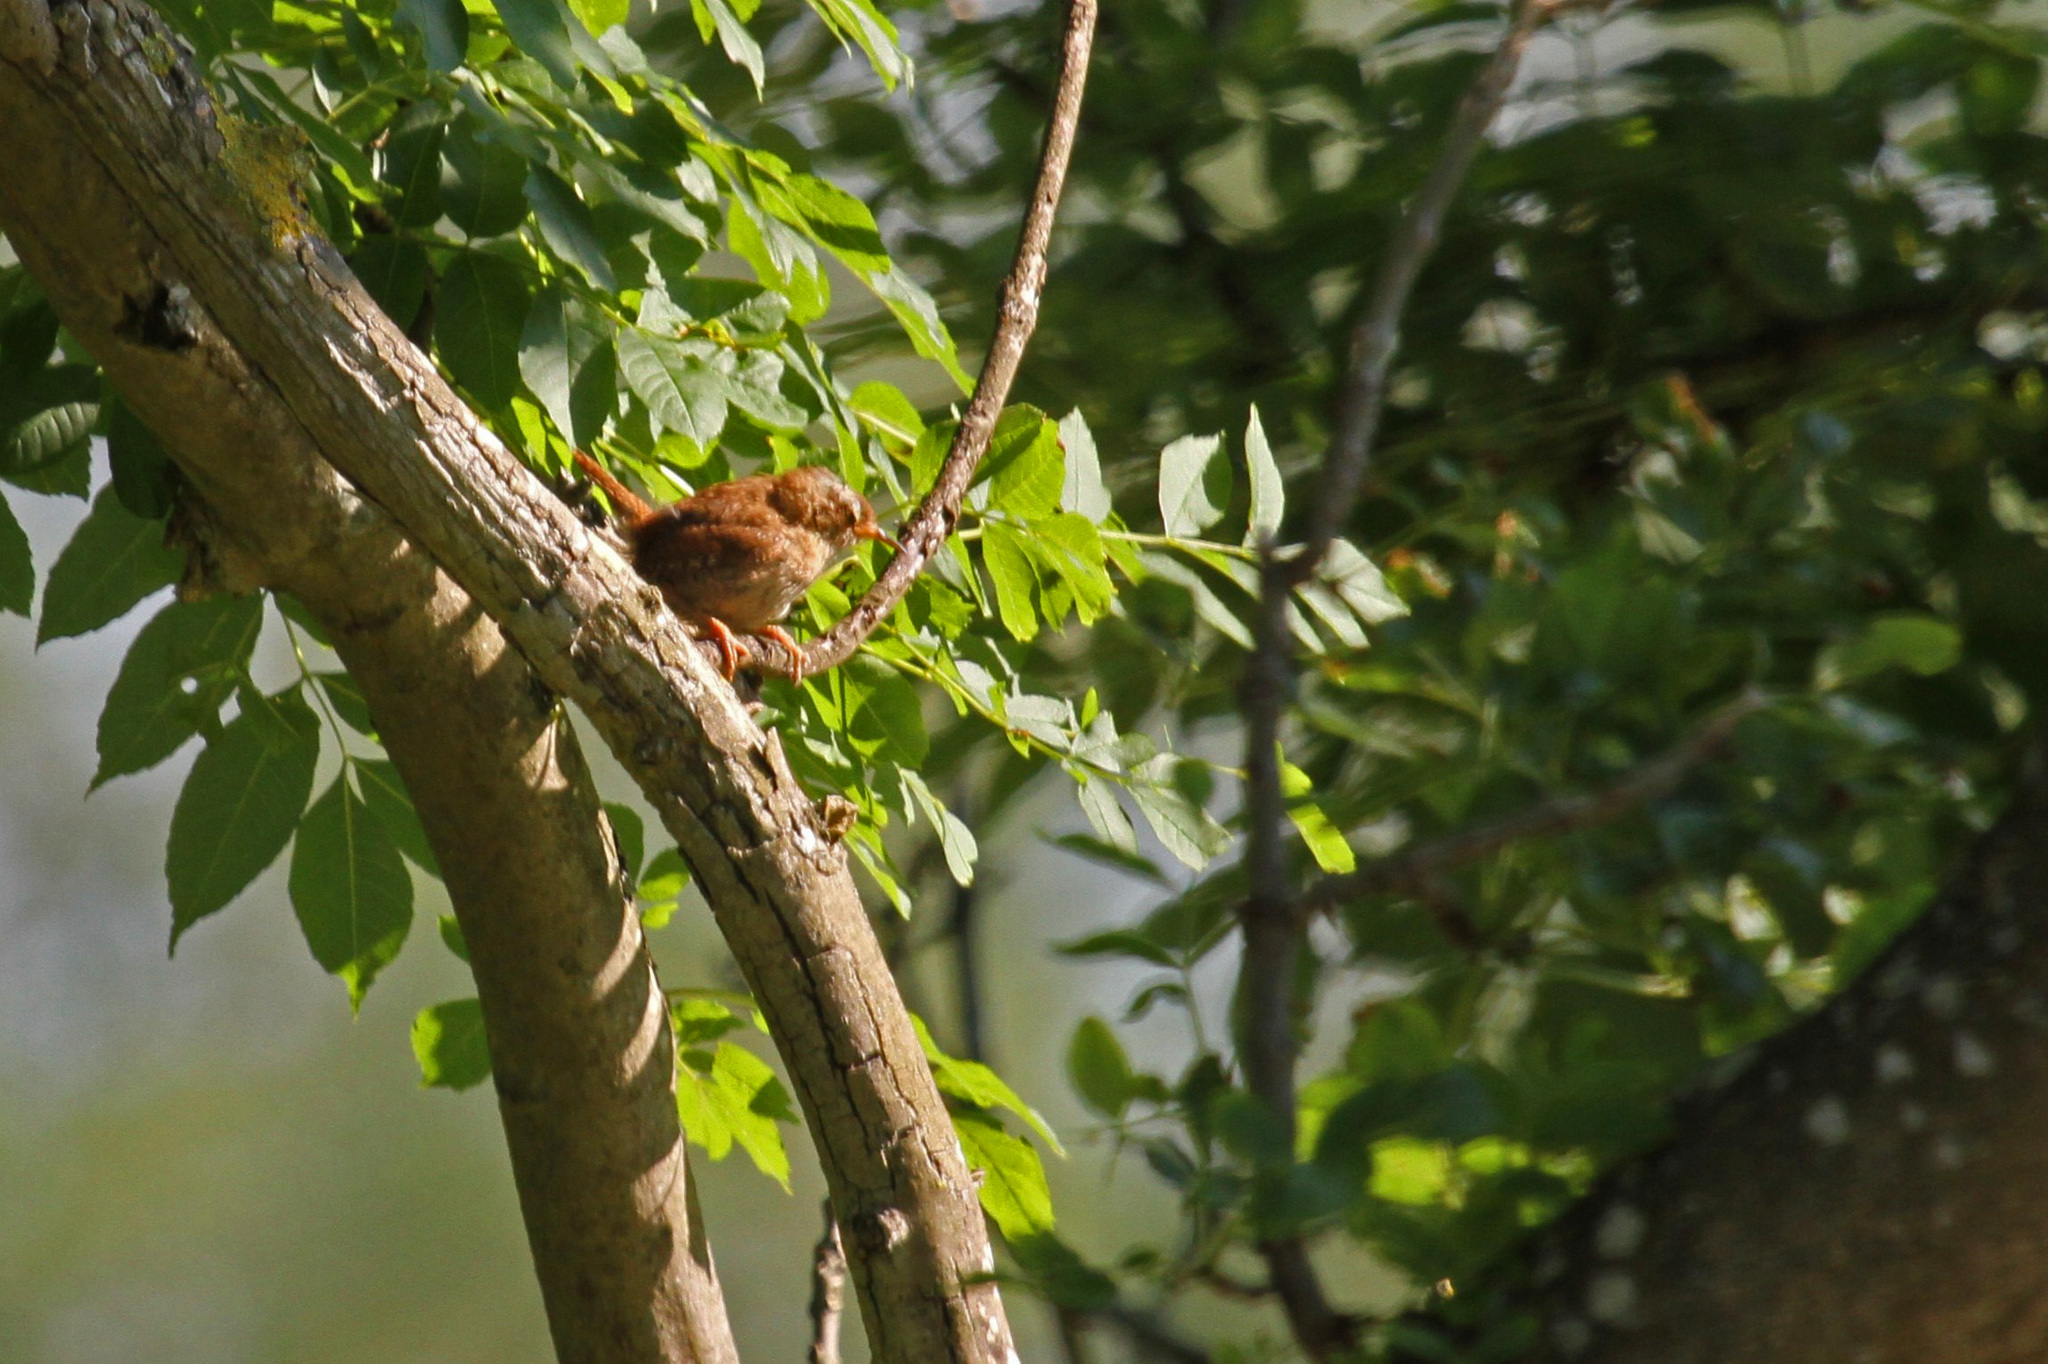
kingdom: Animalia
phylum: Chordata
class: Aves
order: Passeriformes
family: Troglodytidae
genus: Troglodytes
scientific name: Troglodytes troglodytes
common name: Eurasian wren
